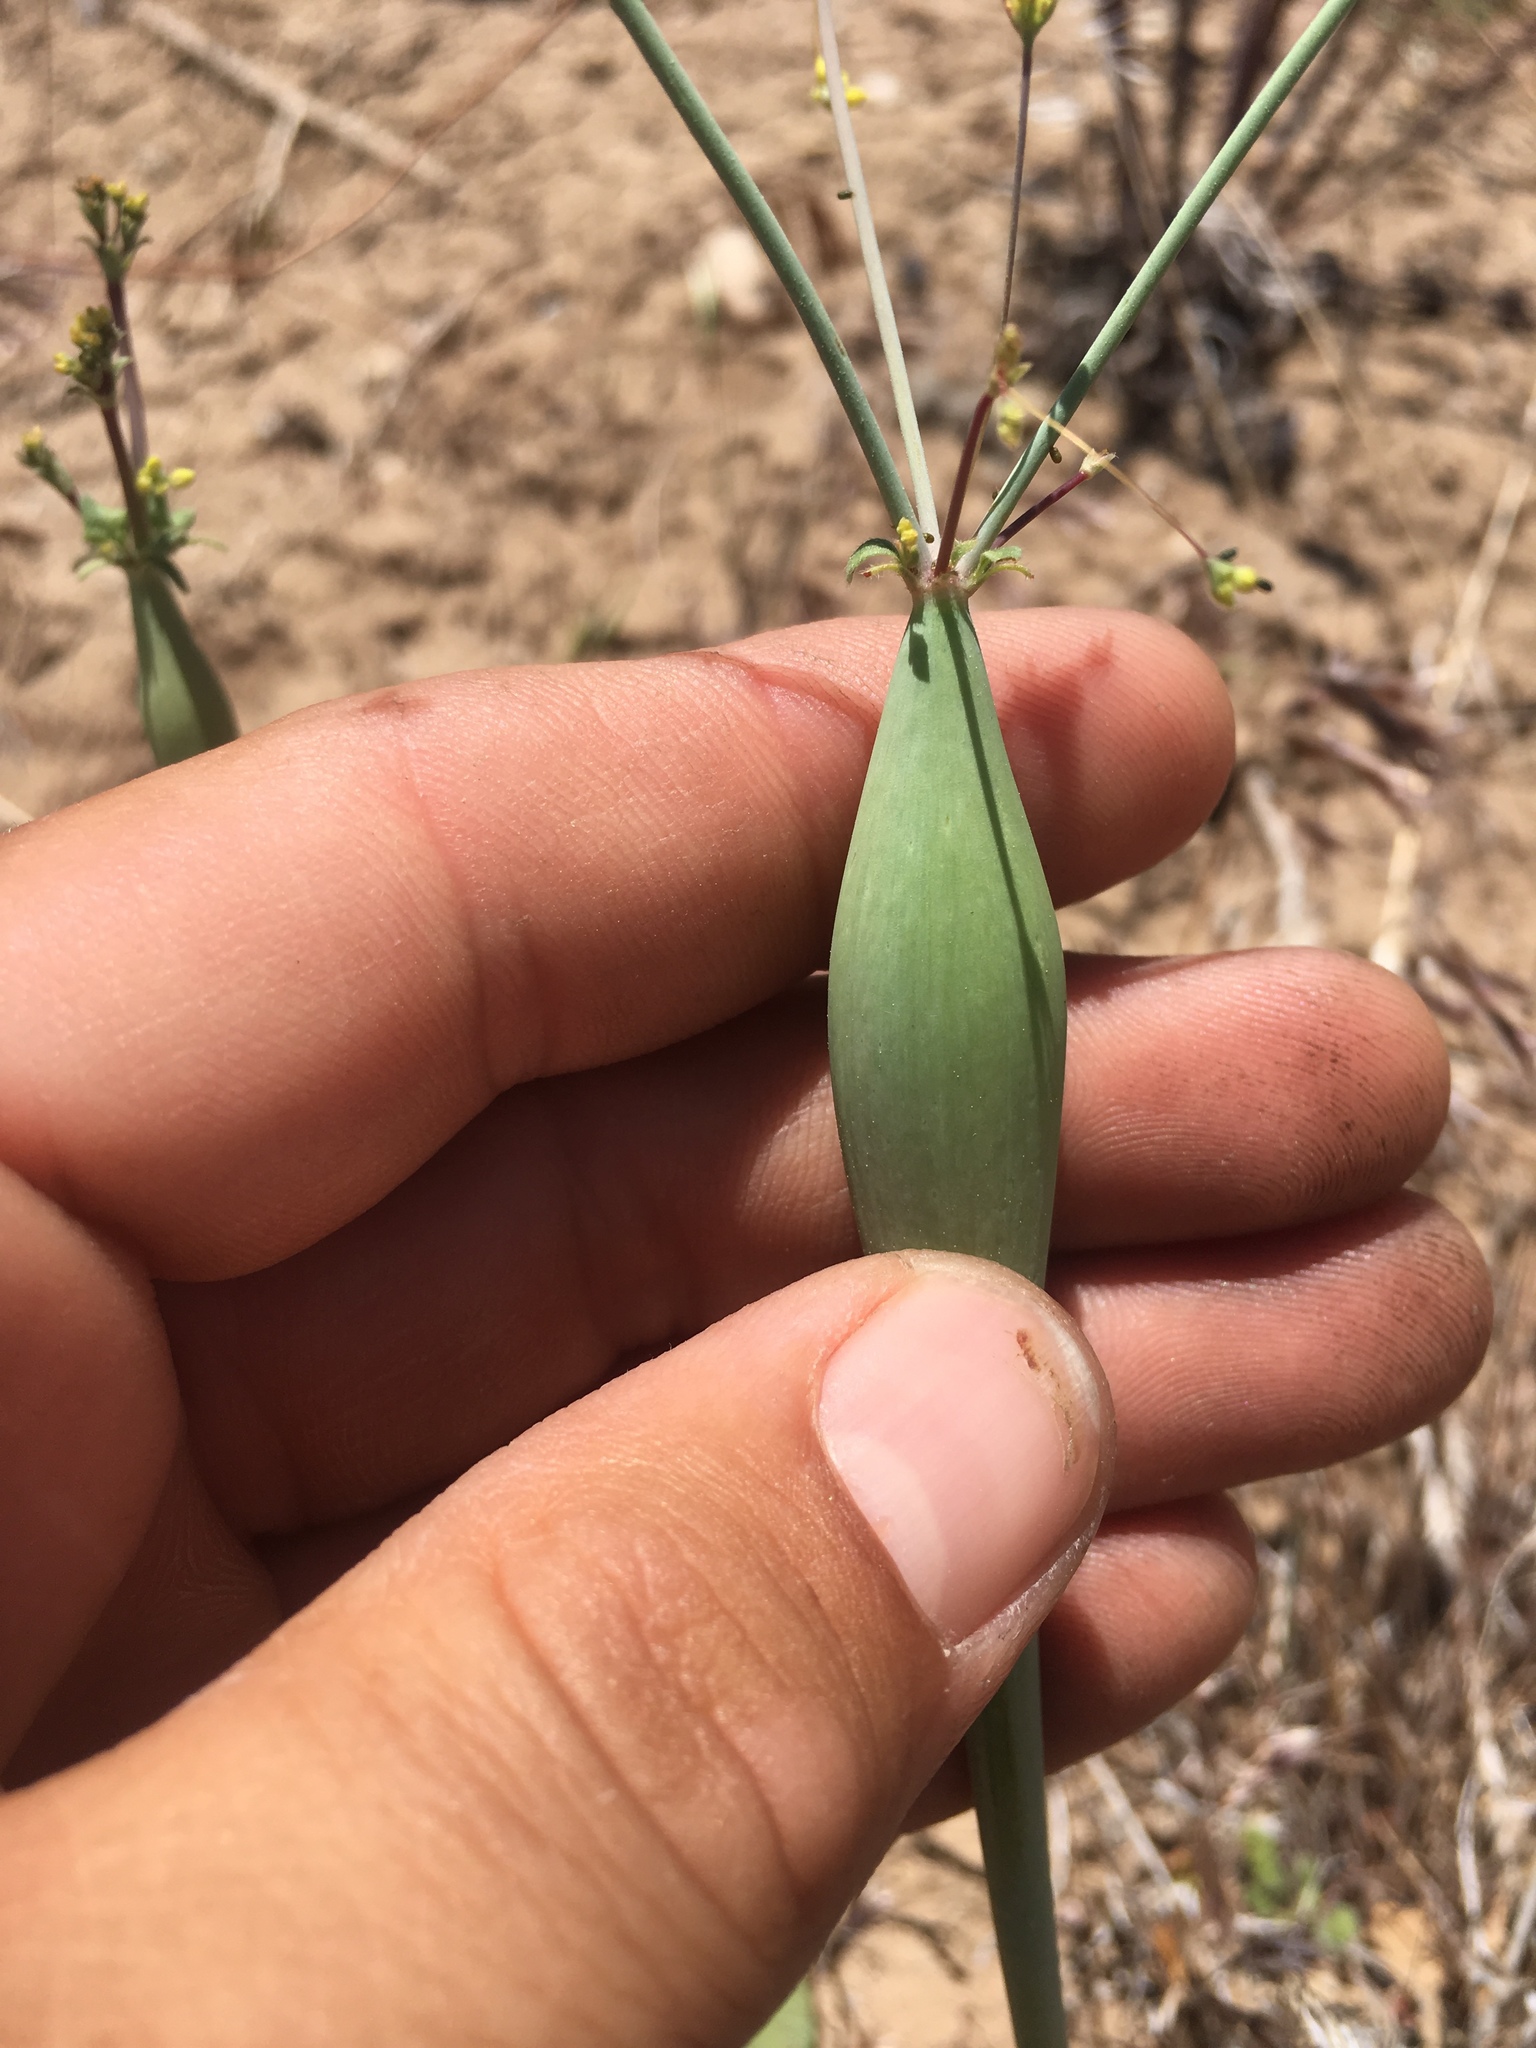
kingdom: Plantae
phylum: Tracheophyta
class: Magnoliopsida
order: Caryophyllales
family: Polygonaceae
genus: Eriogonum
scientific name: Eriogonum clavatum
